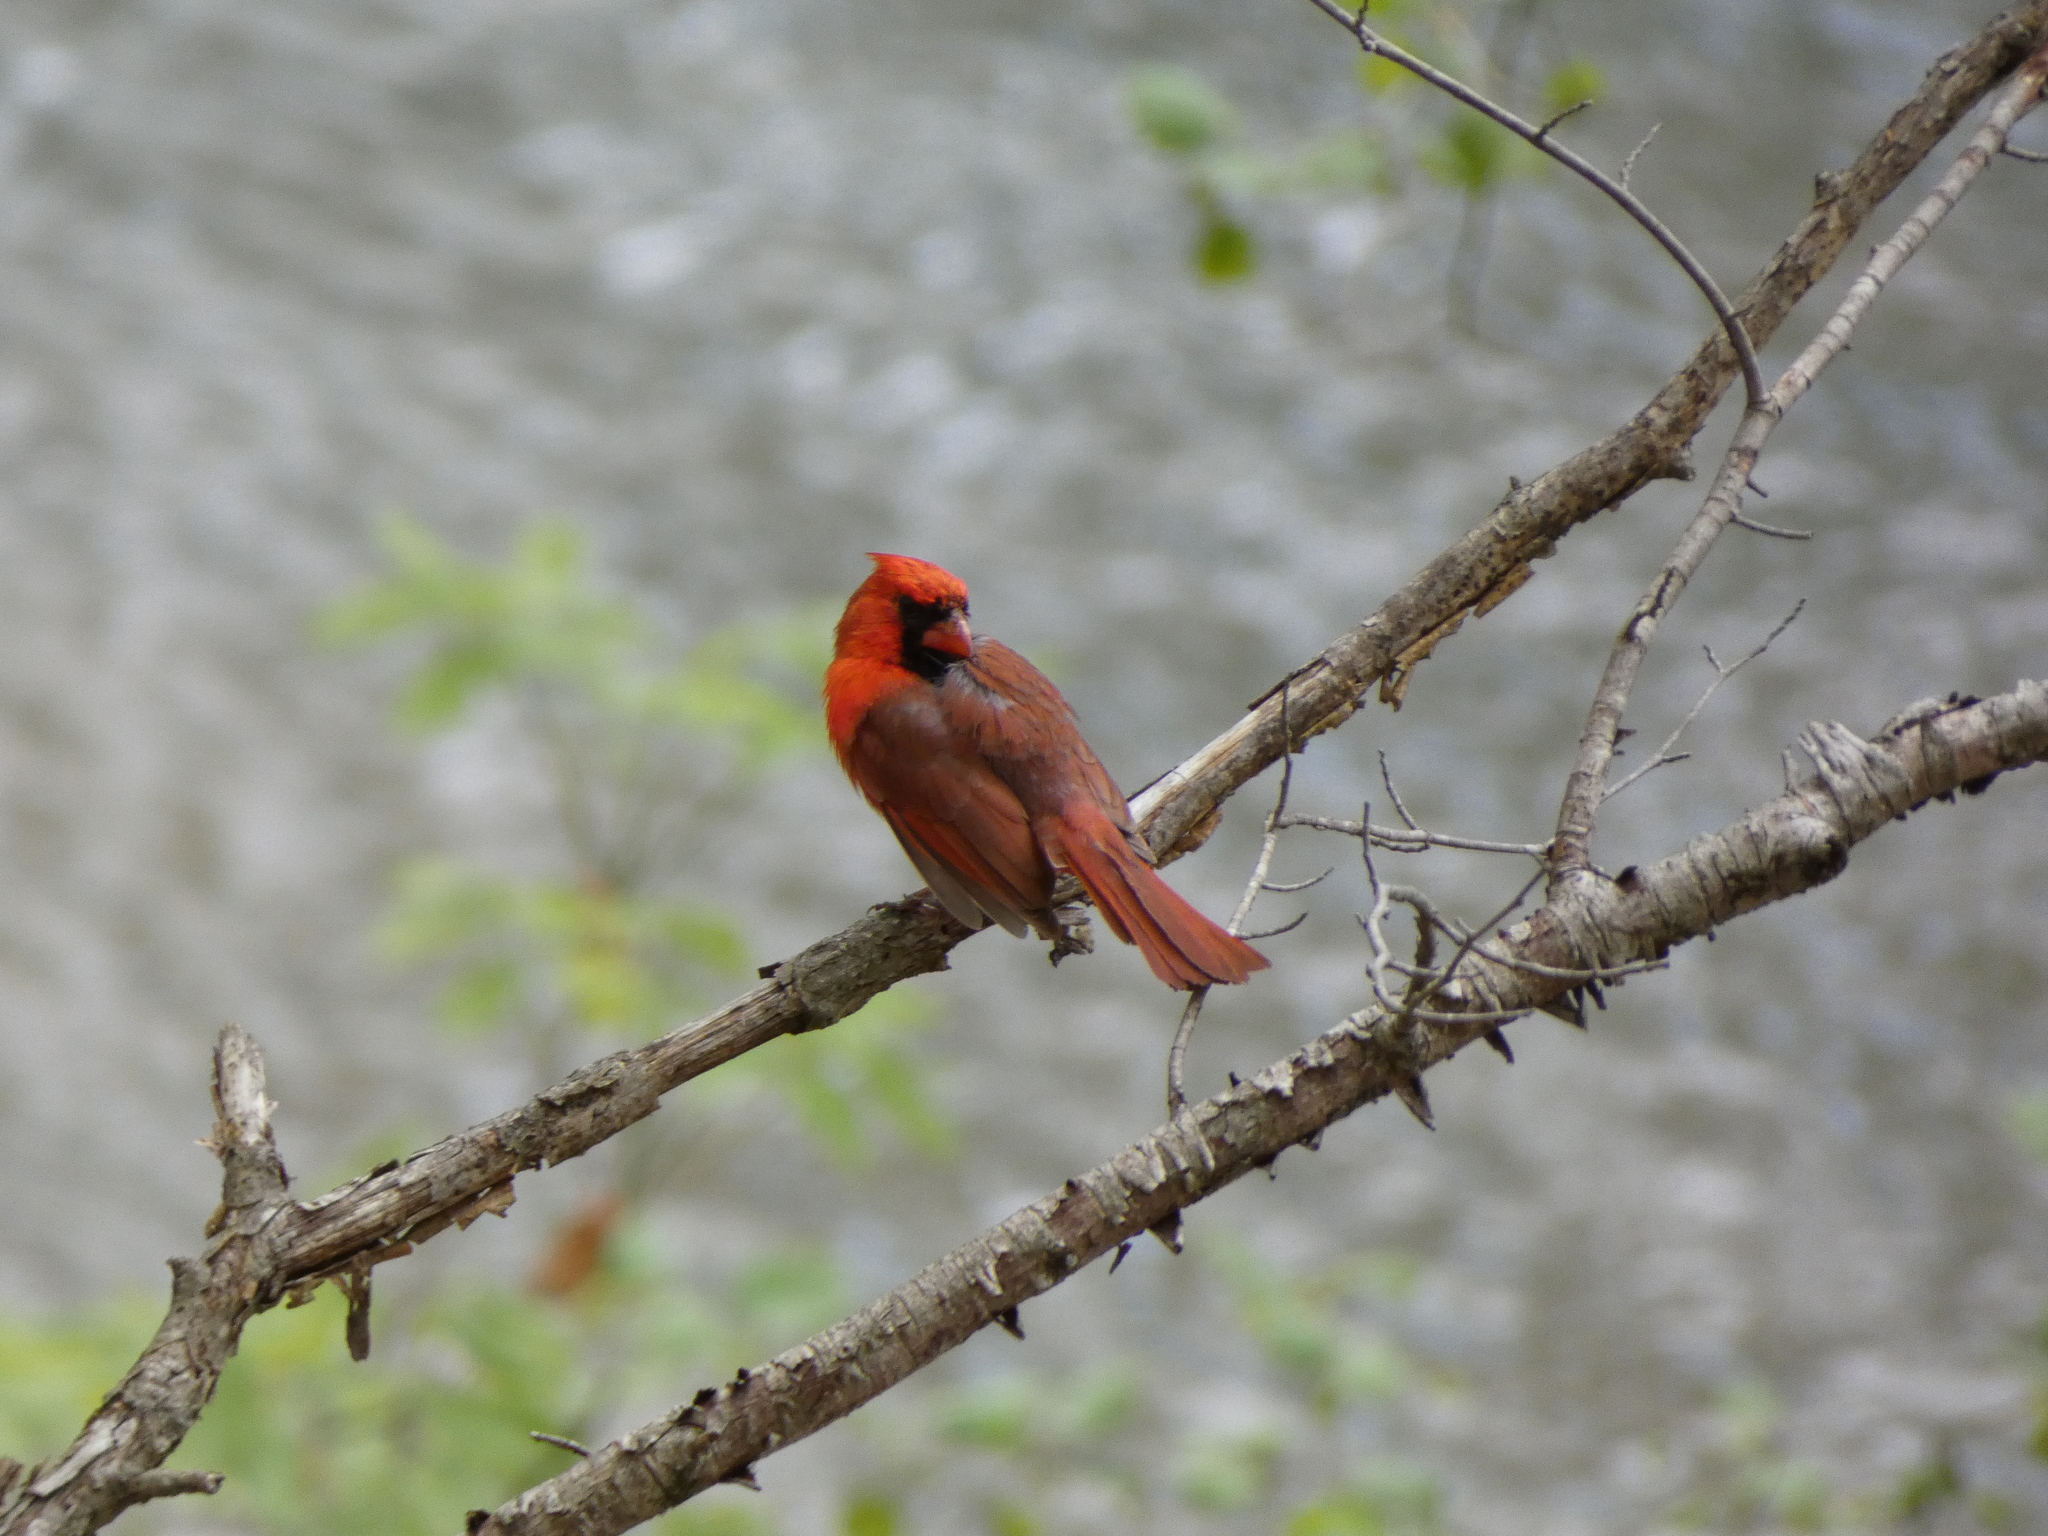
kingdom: Animalia
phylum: Chordata
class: Aves
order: Passeriformes
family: Cardinalidae
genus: Cardinalis
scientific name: Cardinalis cardinalis
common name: Northern cardinal
